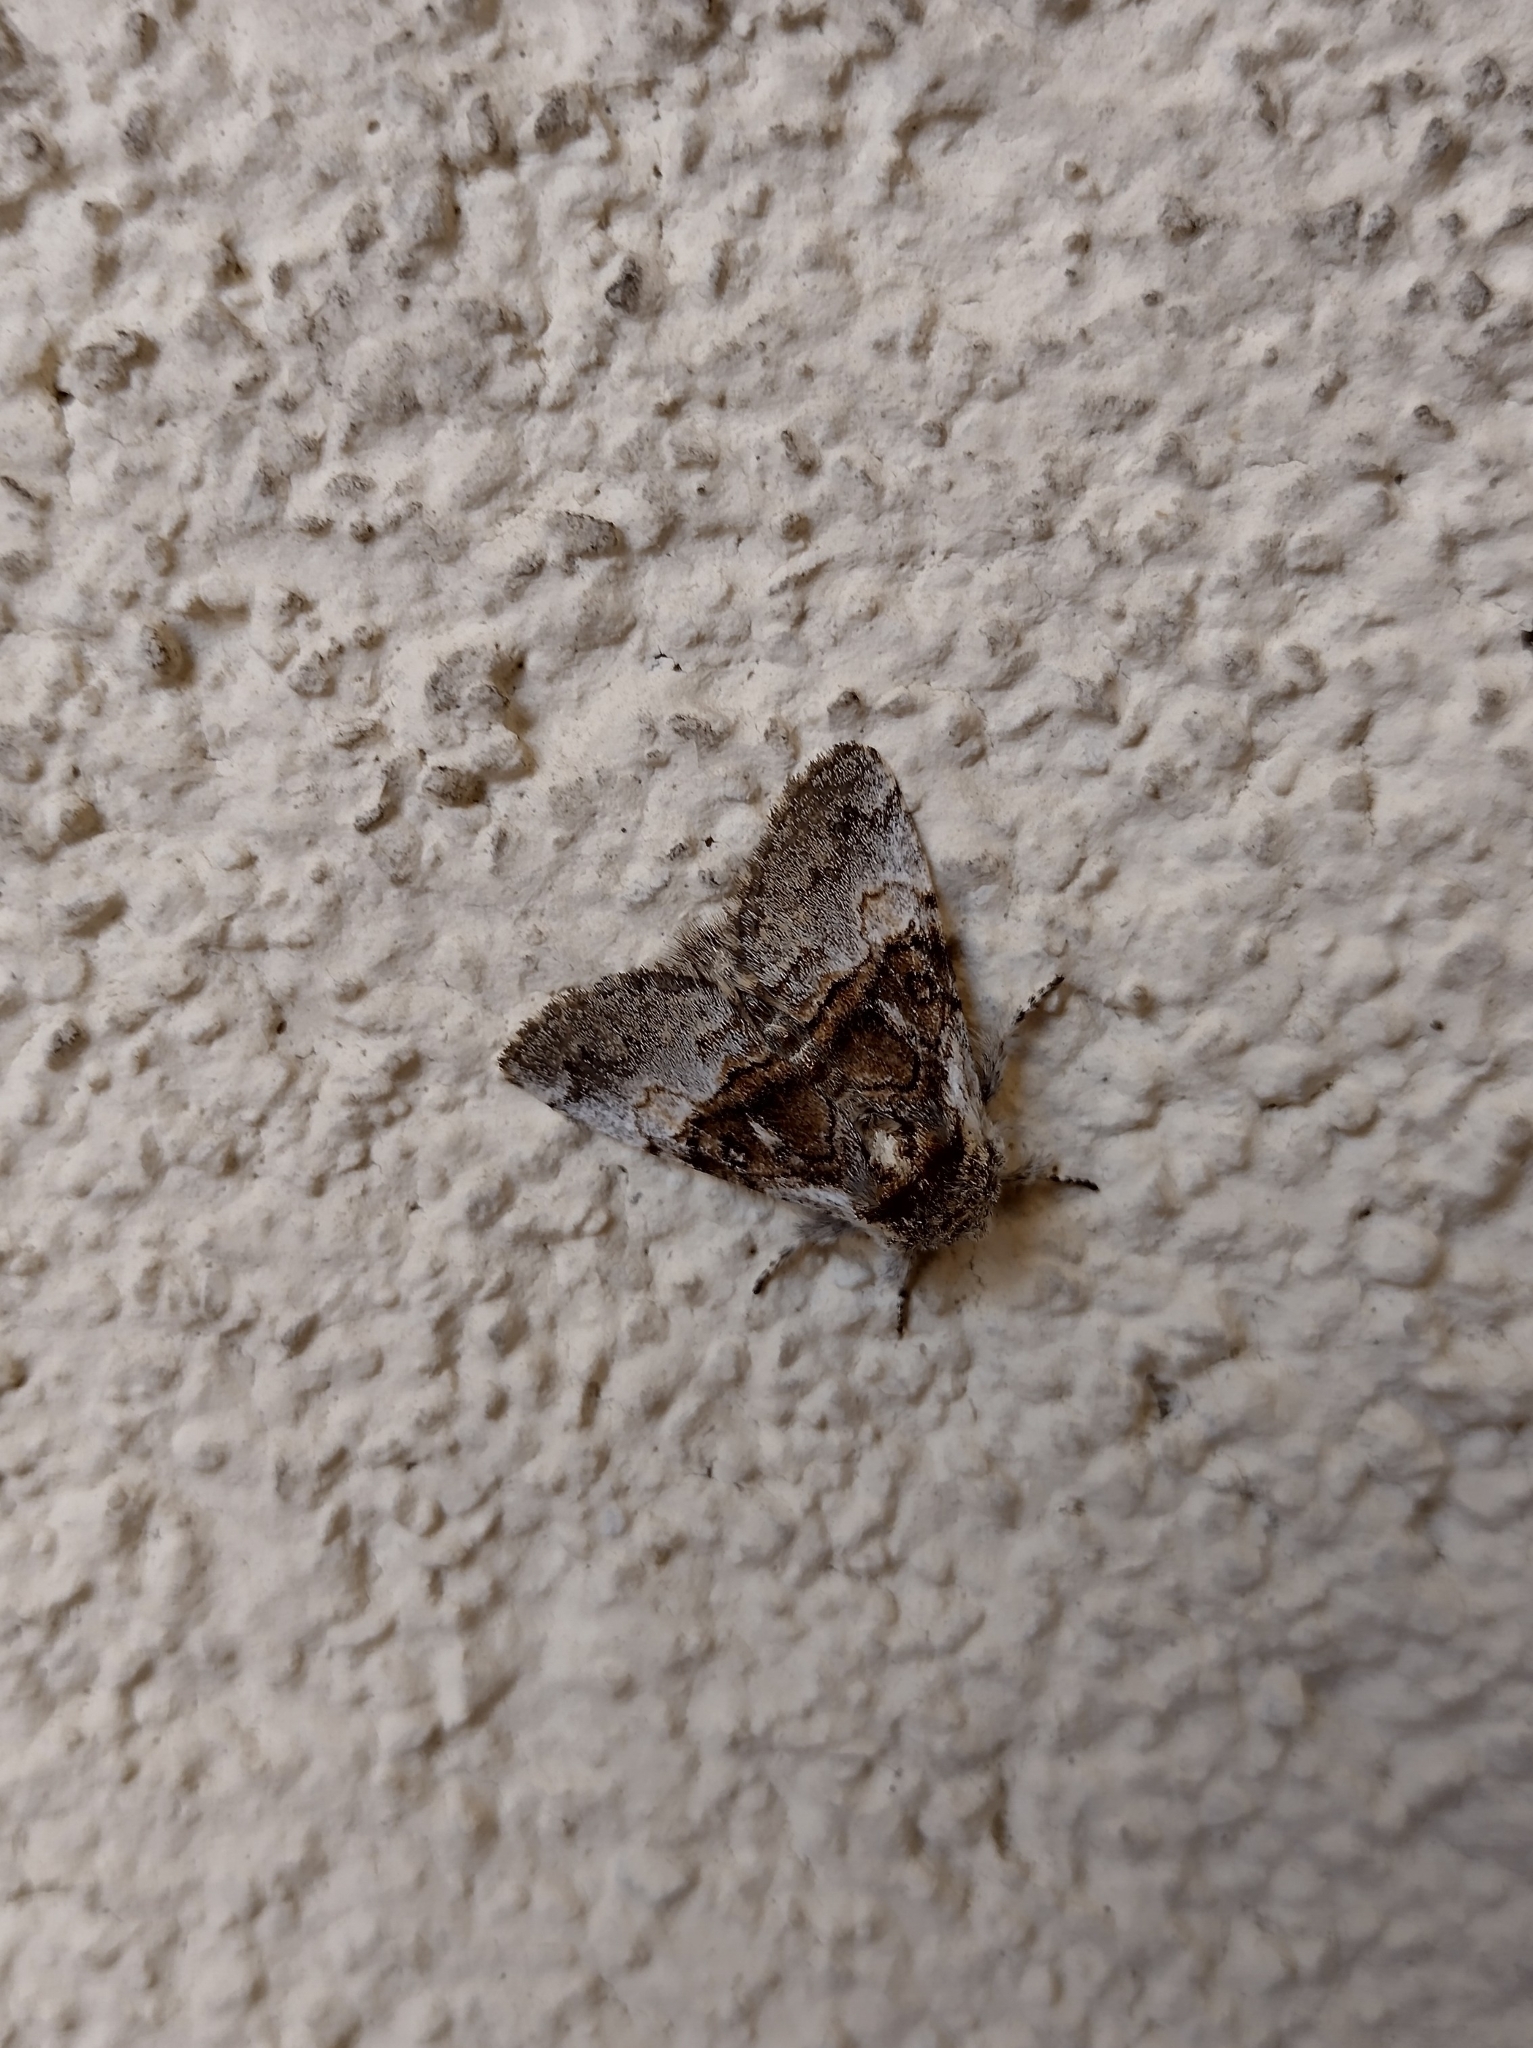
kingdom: Animalia
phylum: Arthropoda
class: Insecta
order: Lepidoptera
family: Noctuidae
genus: Colocasia
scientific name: Colocasia coryli
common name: Nut-tree tussock
